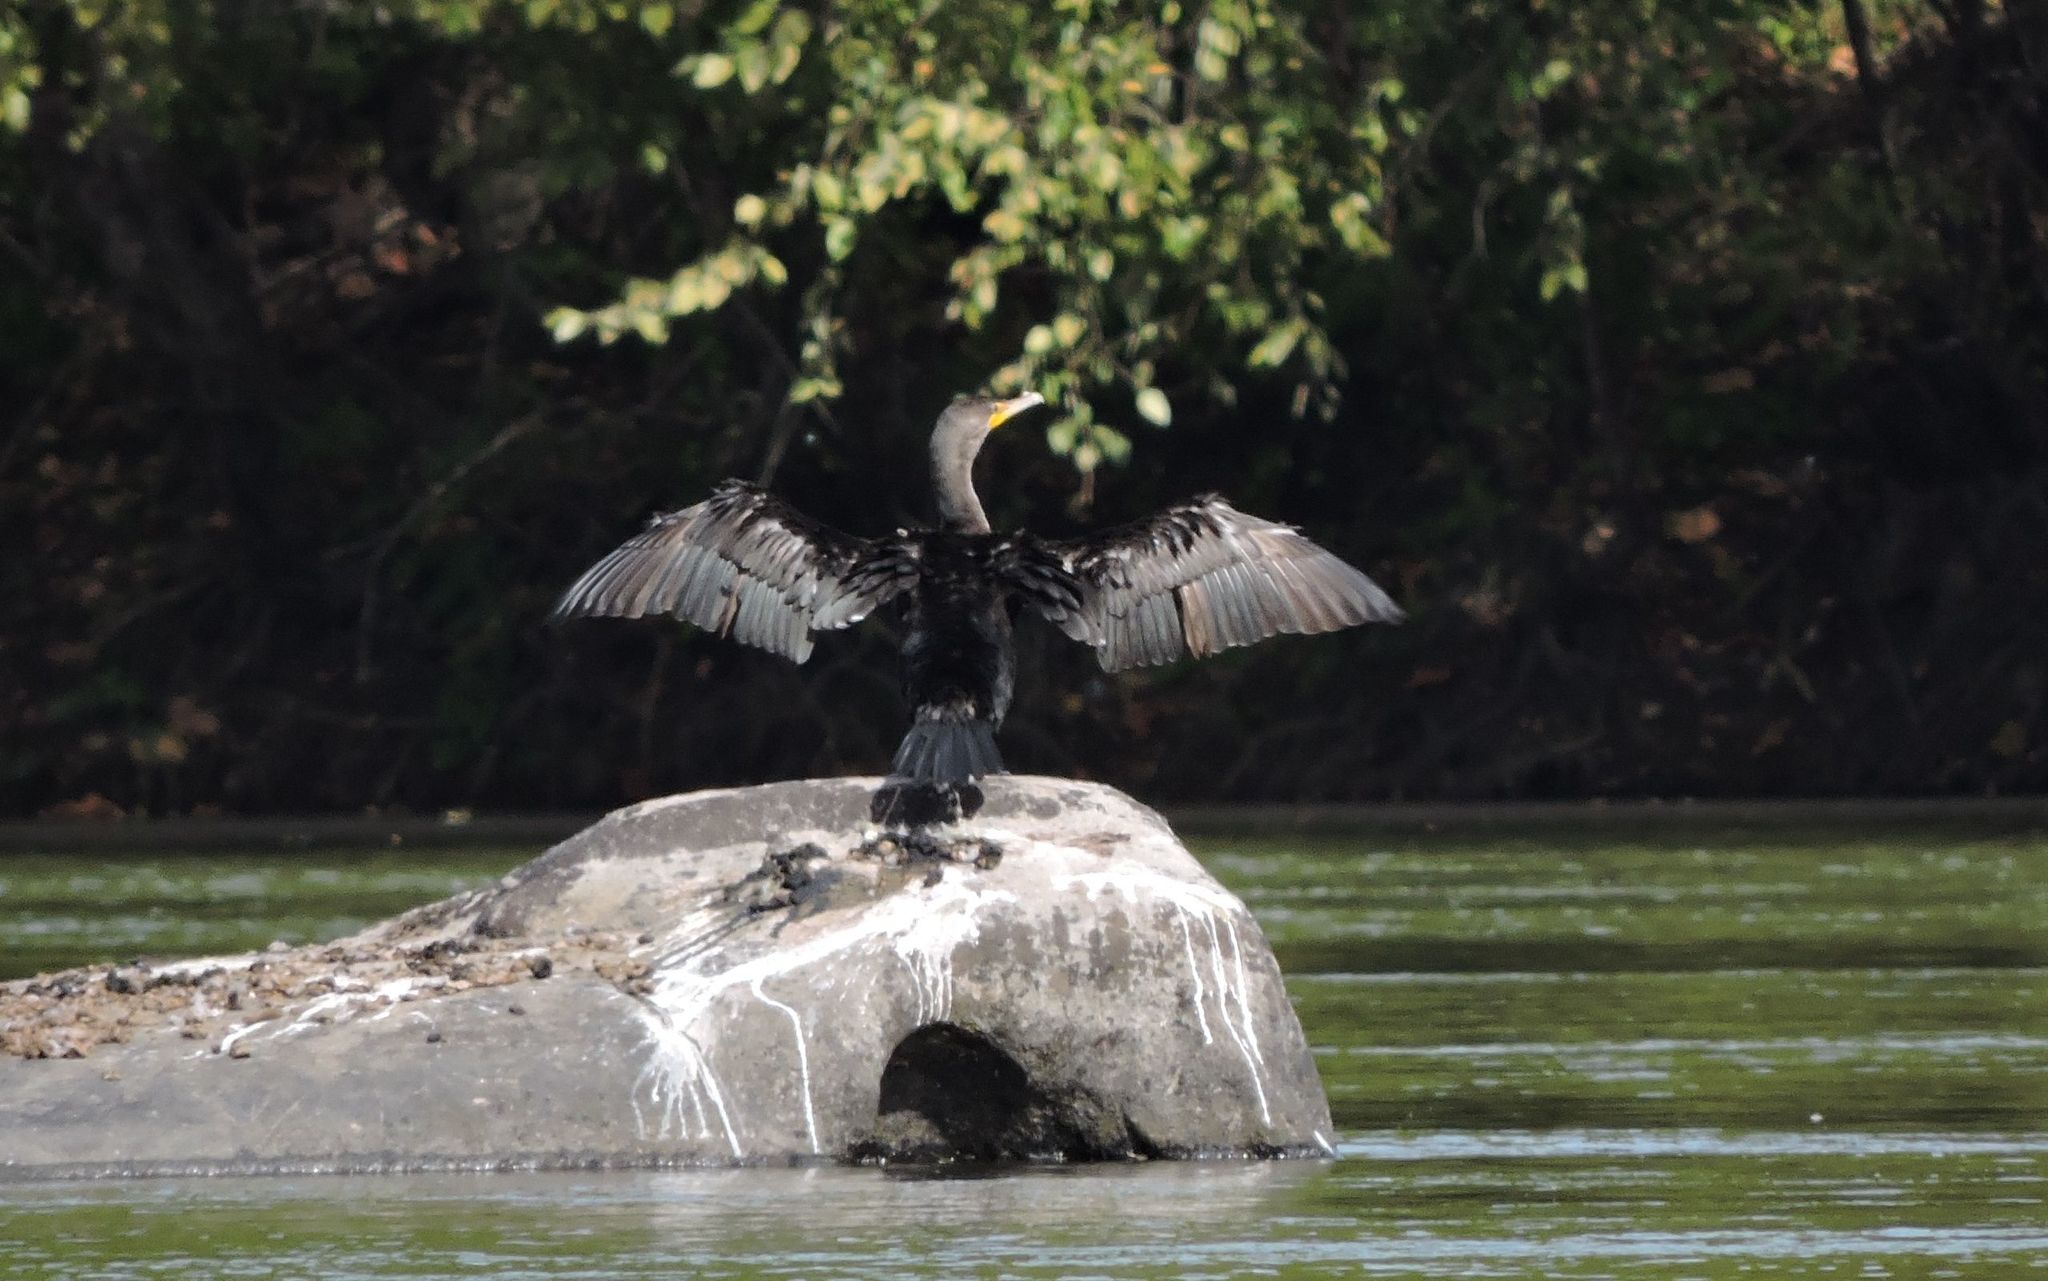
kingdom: Animalia
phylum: Chordata
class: Aves
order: Suliformes
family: Phalacrocoracidae
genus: Phalacrocorax
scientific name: Phalacrocorax auritus
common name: Double-crested cormorant
